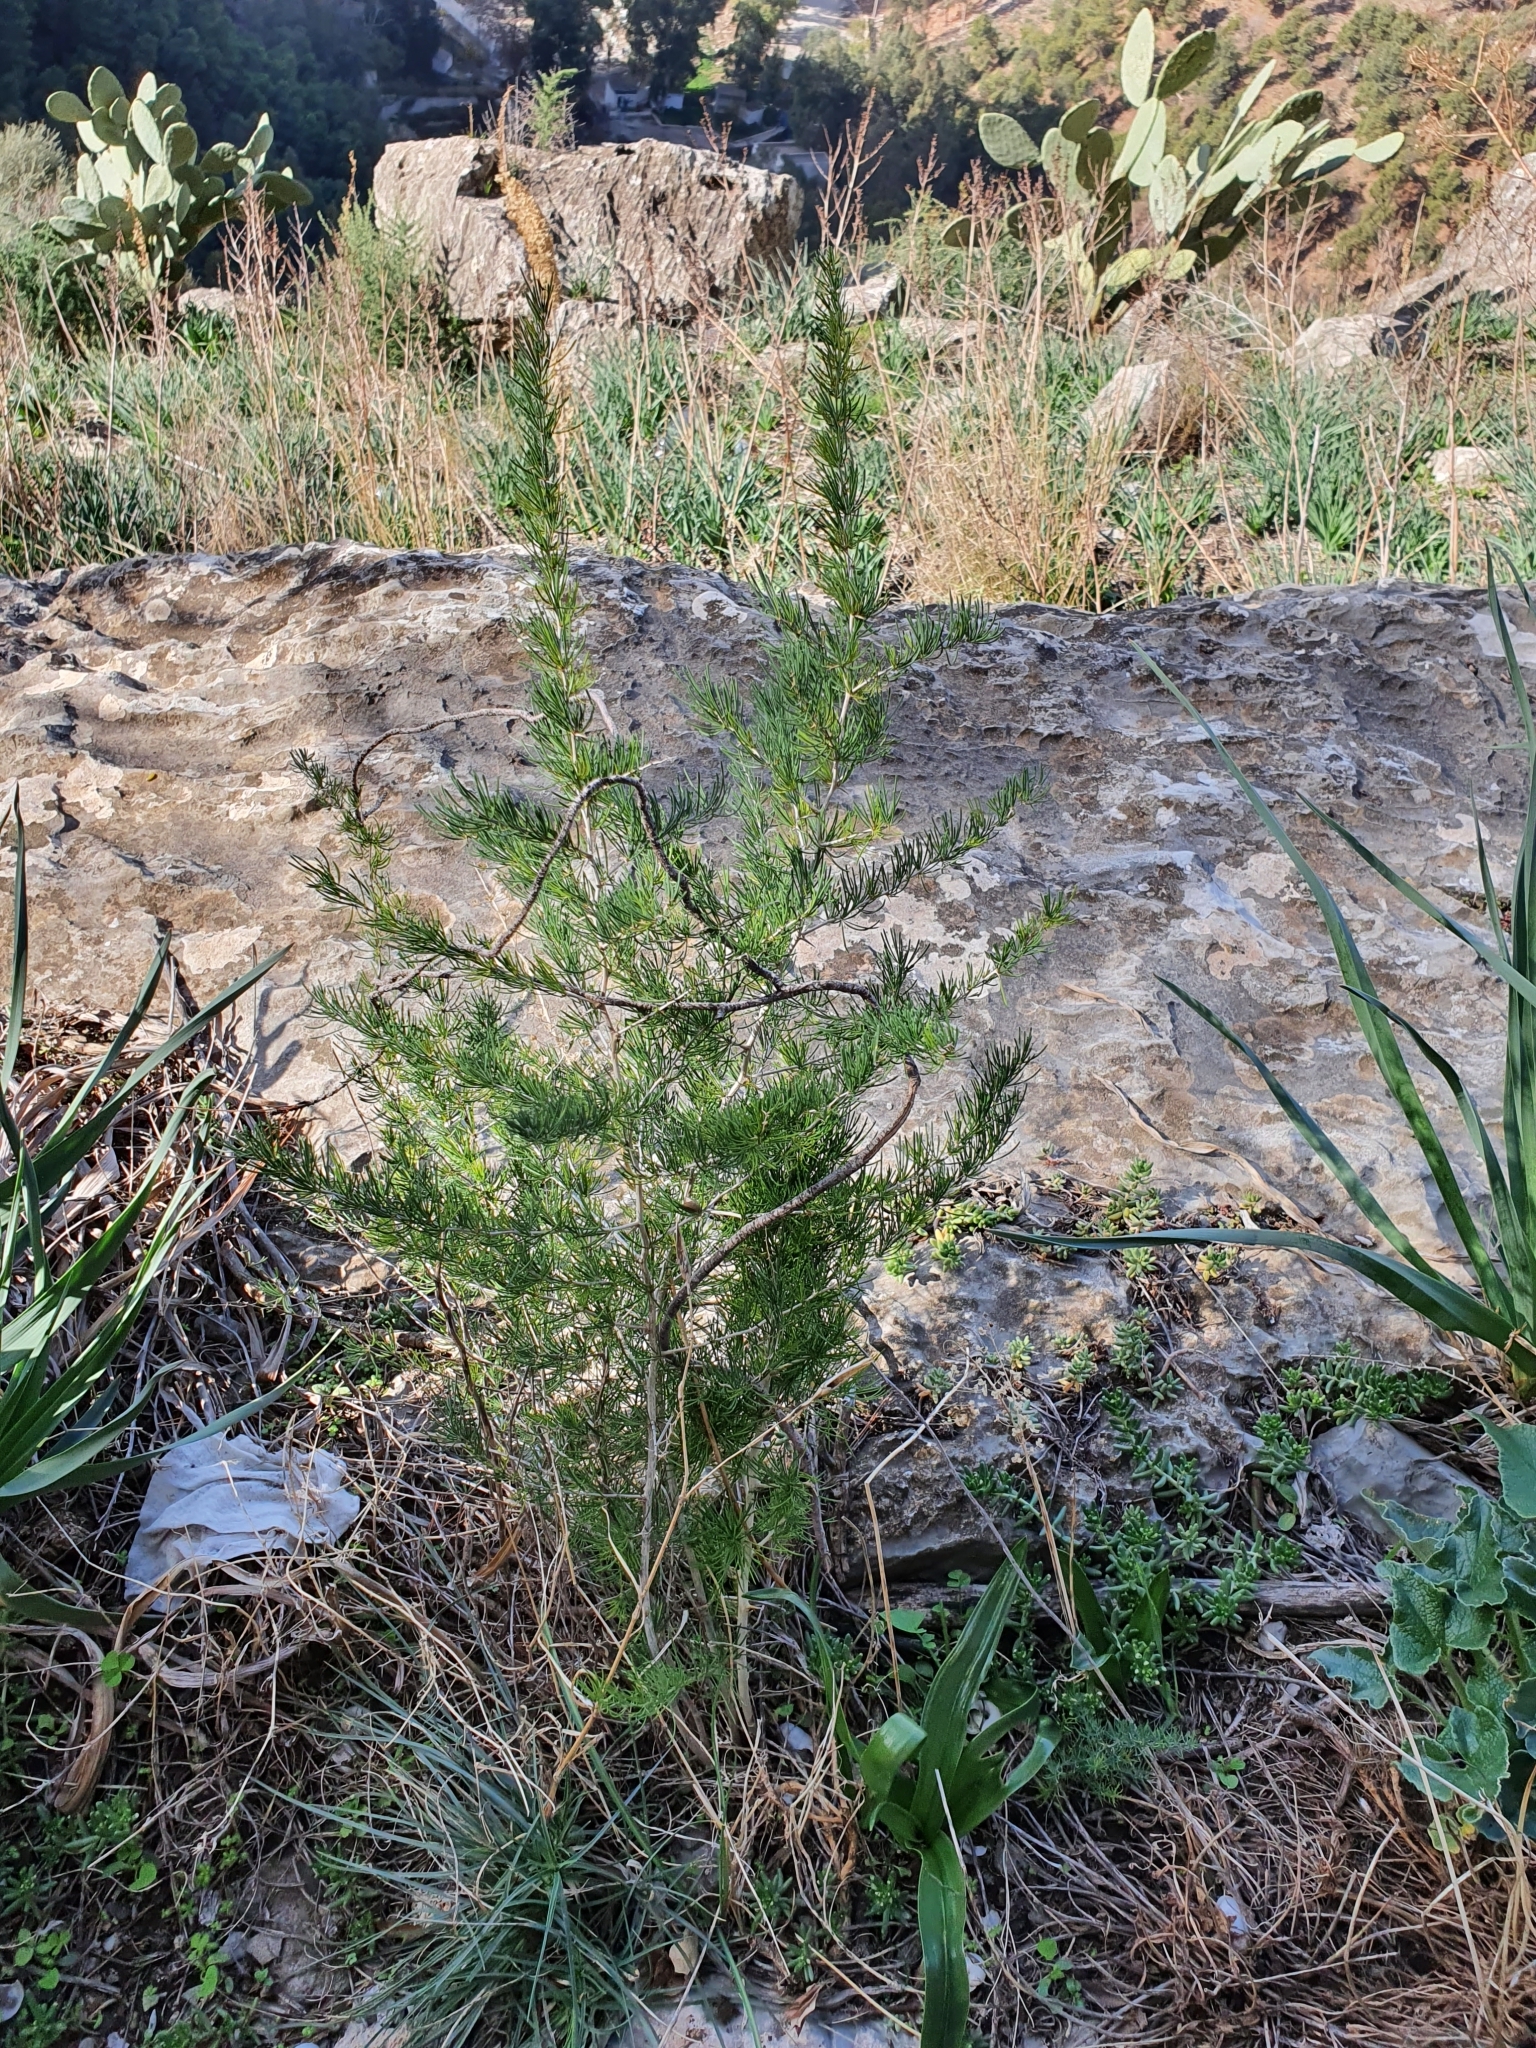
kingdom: Plantae
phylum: Tracheophyta
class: Liliopsida
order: Asparagales
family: Asparagaceae
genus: Asparagus
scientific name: Asparagus albus
